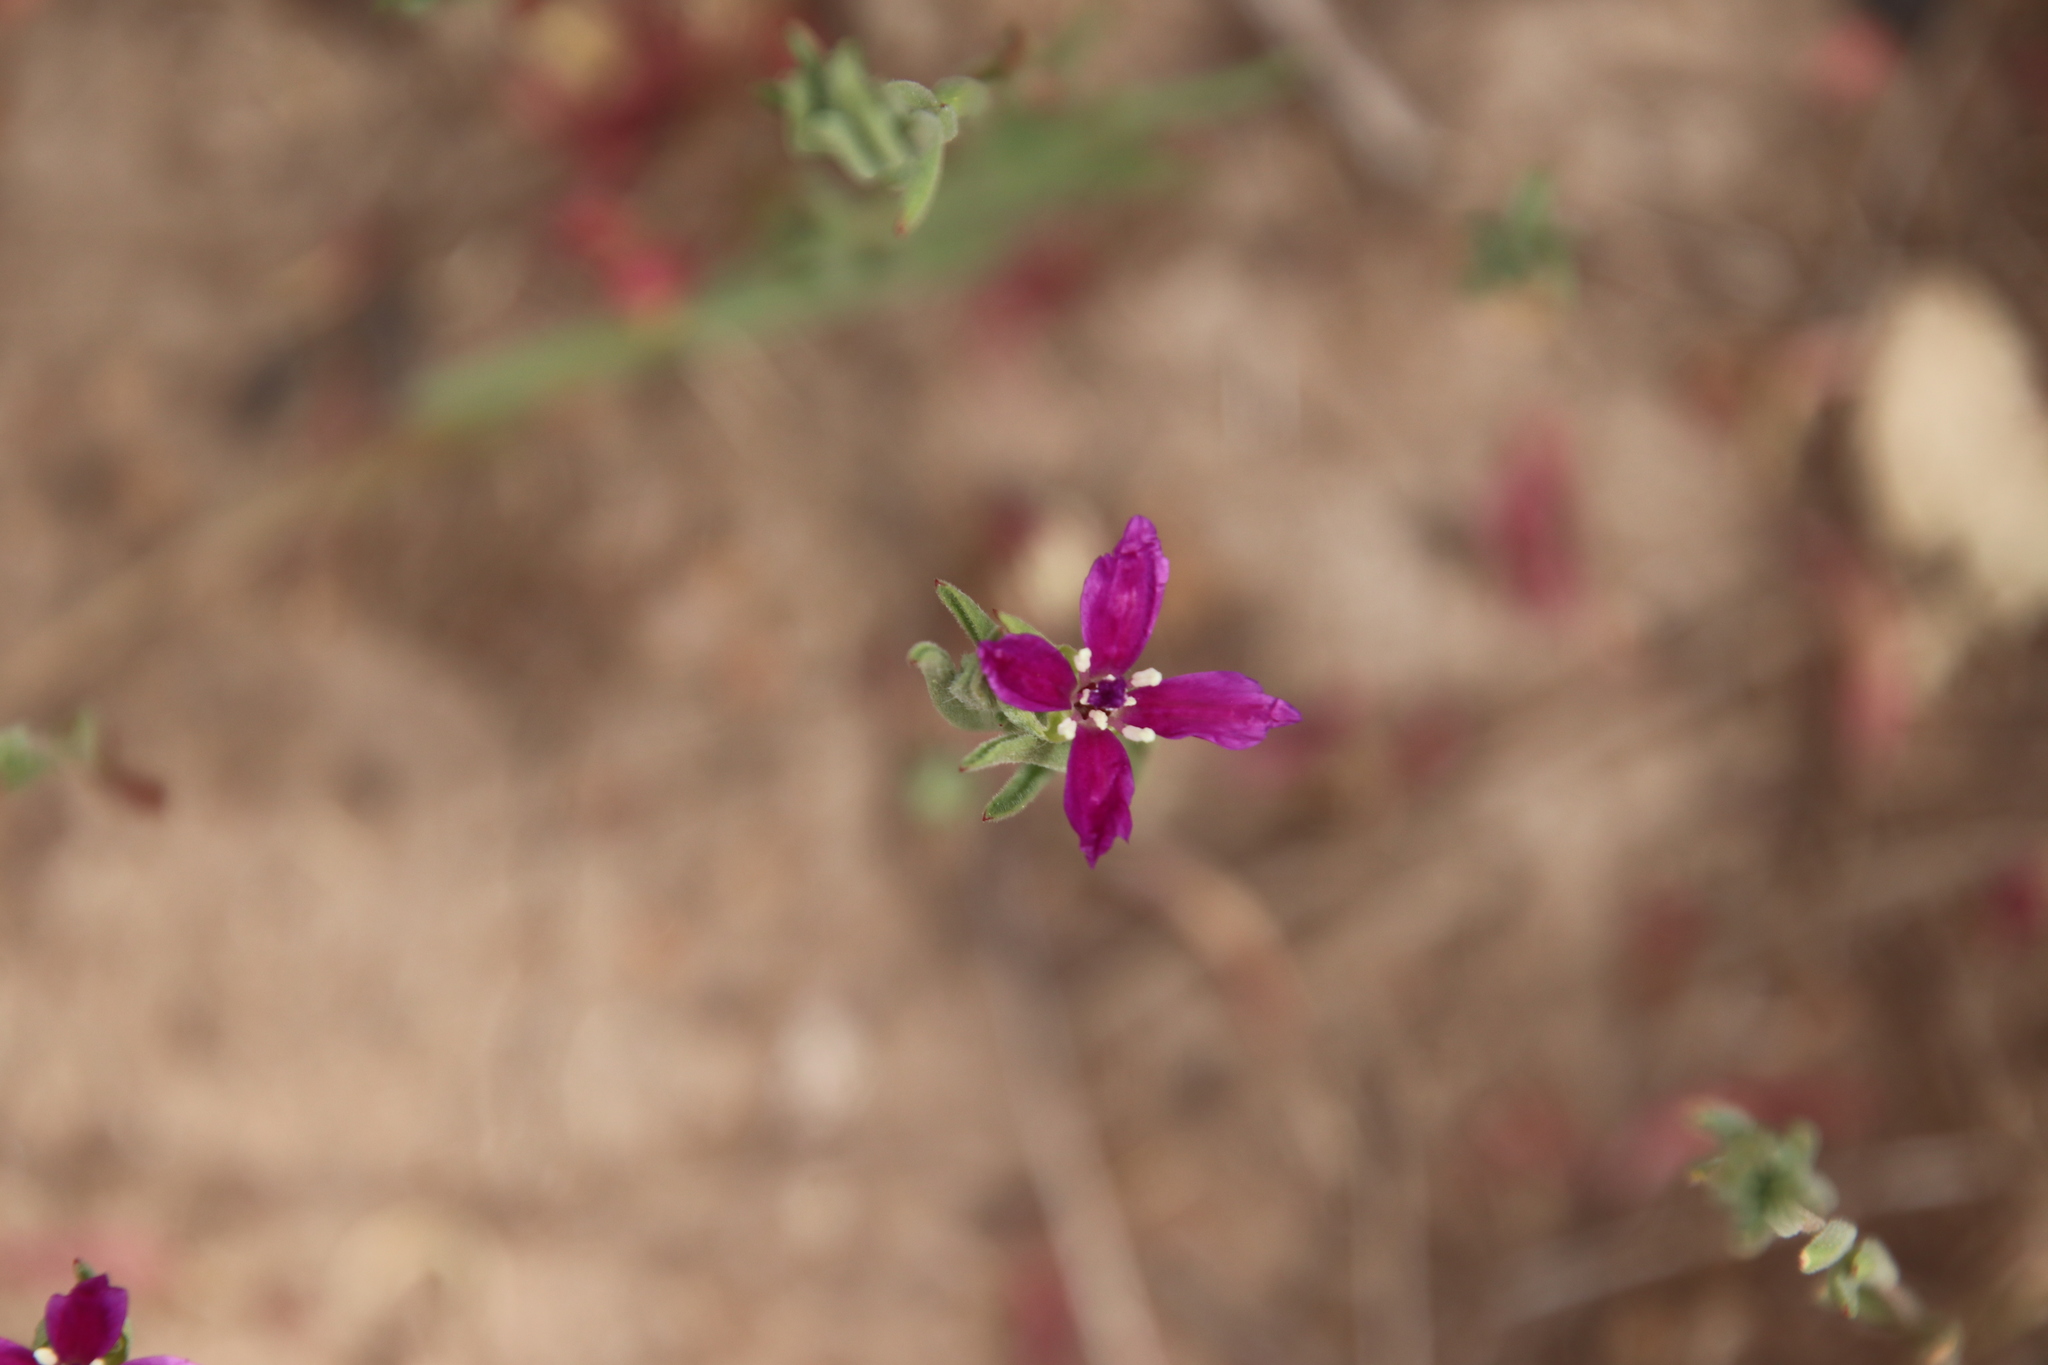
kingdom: Plantae
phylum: Tracheophyta
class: Magnoliopsida
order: Myrtales
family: Onagraceae
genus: Clarkia
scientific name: Clarkia purpurea
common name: Purple clarkia
